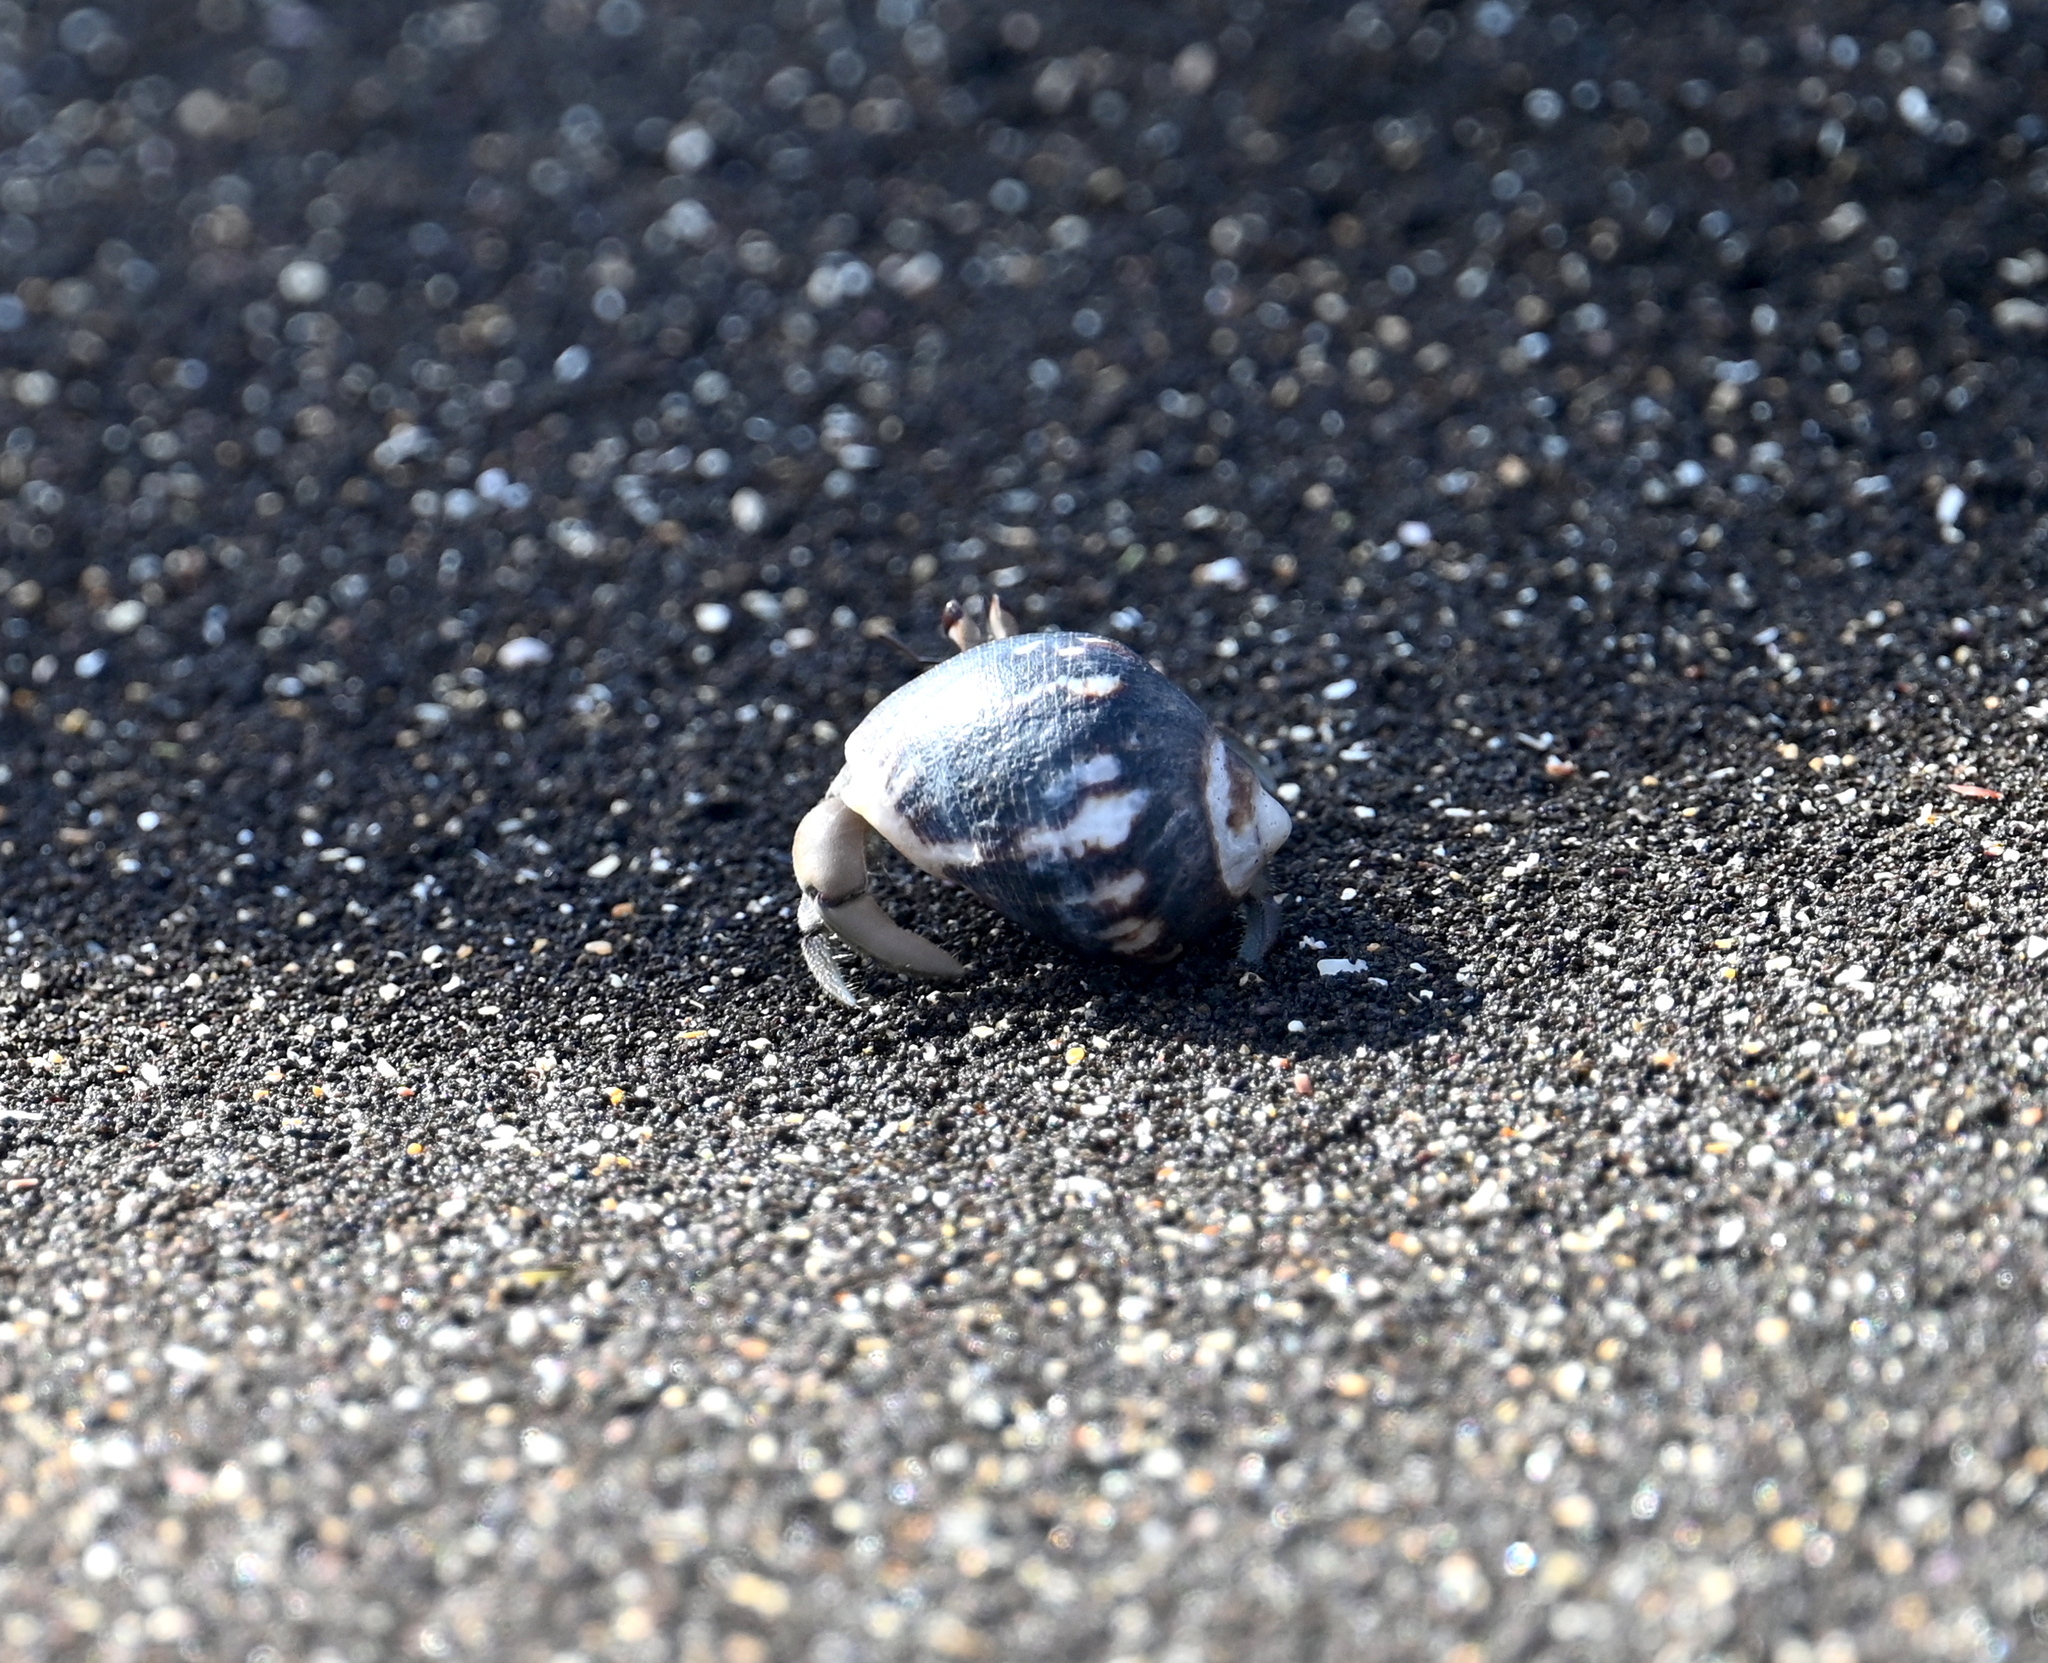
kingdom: Animalia
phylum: Arthropoda
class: Malacostraca
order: Decapoda
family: Coenobitidae
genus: Coenobita
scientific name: Coenobita compressus
